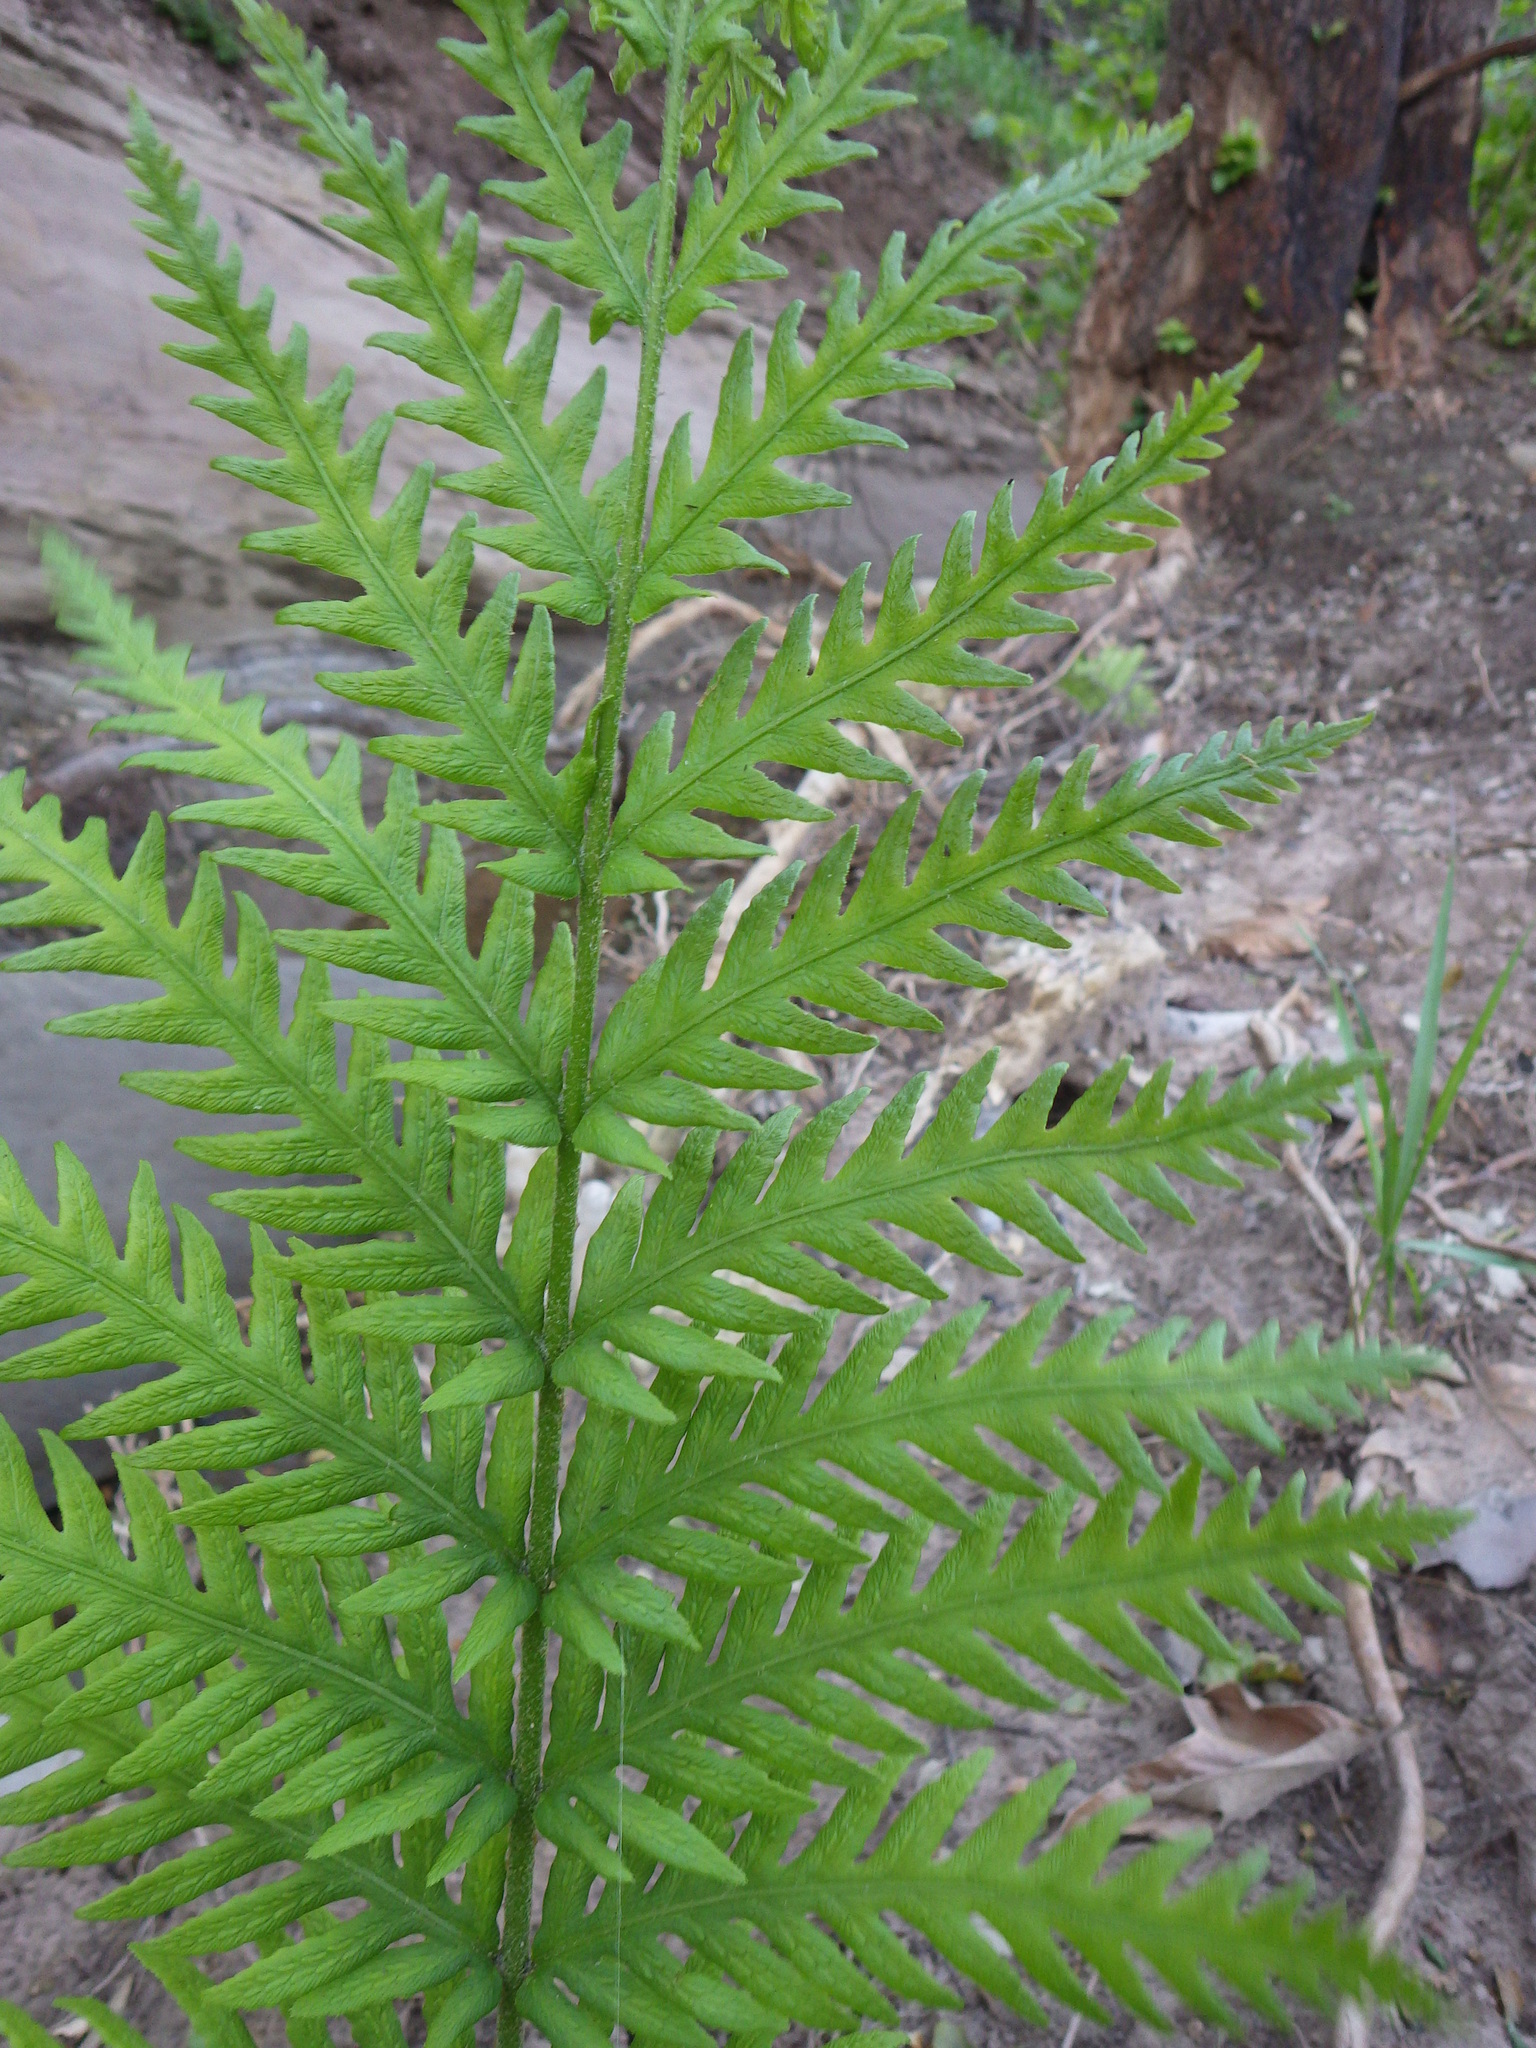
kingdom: Plantae
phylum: Tracheophyta
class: Polypodiopsida
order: Polypodiales
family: Blechnaceae
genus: Woodwardia
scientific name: Woodwardia fimbriata
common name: Giant chain fern
